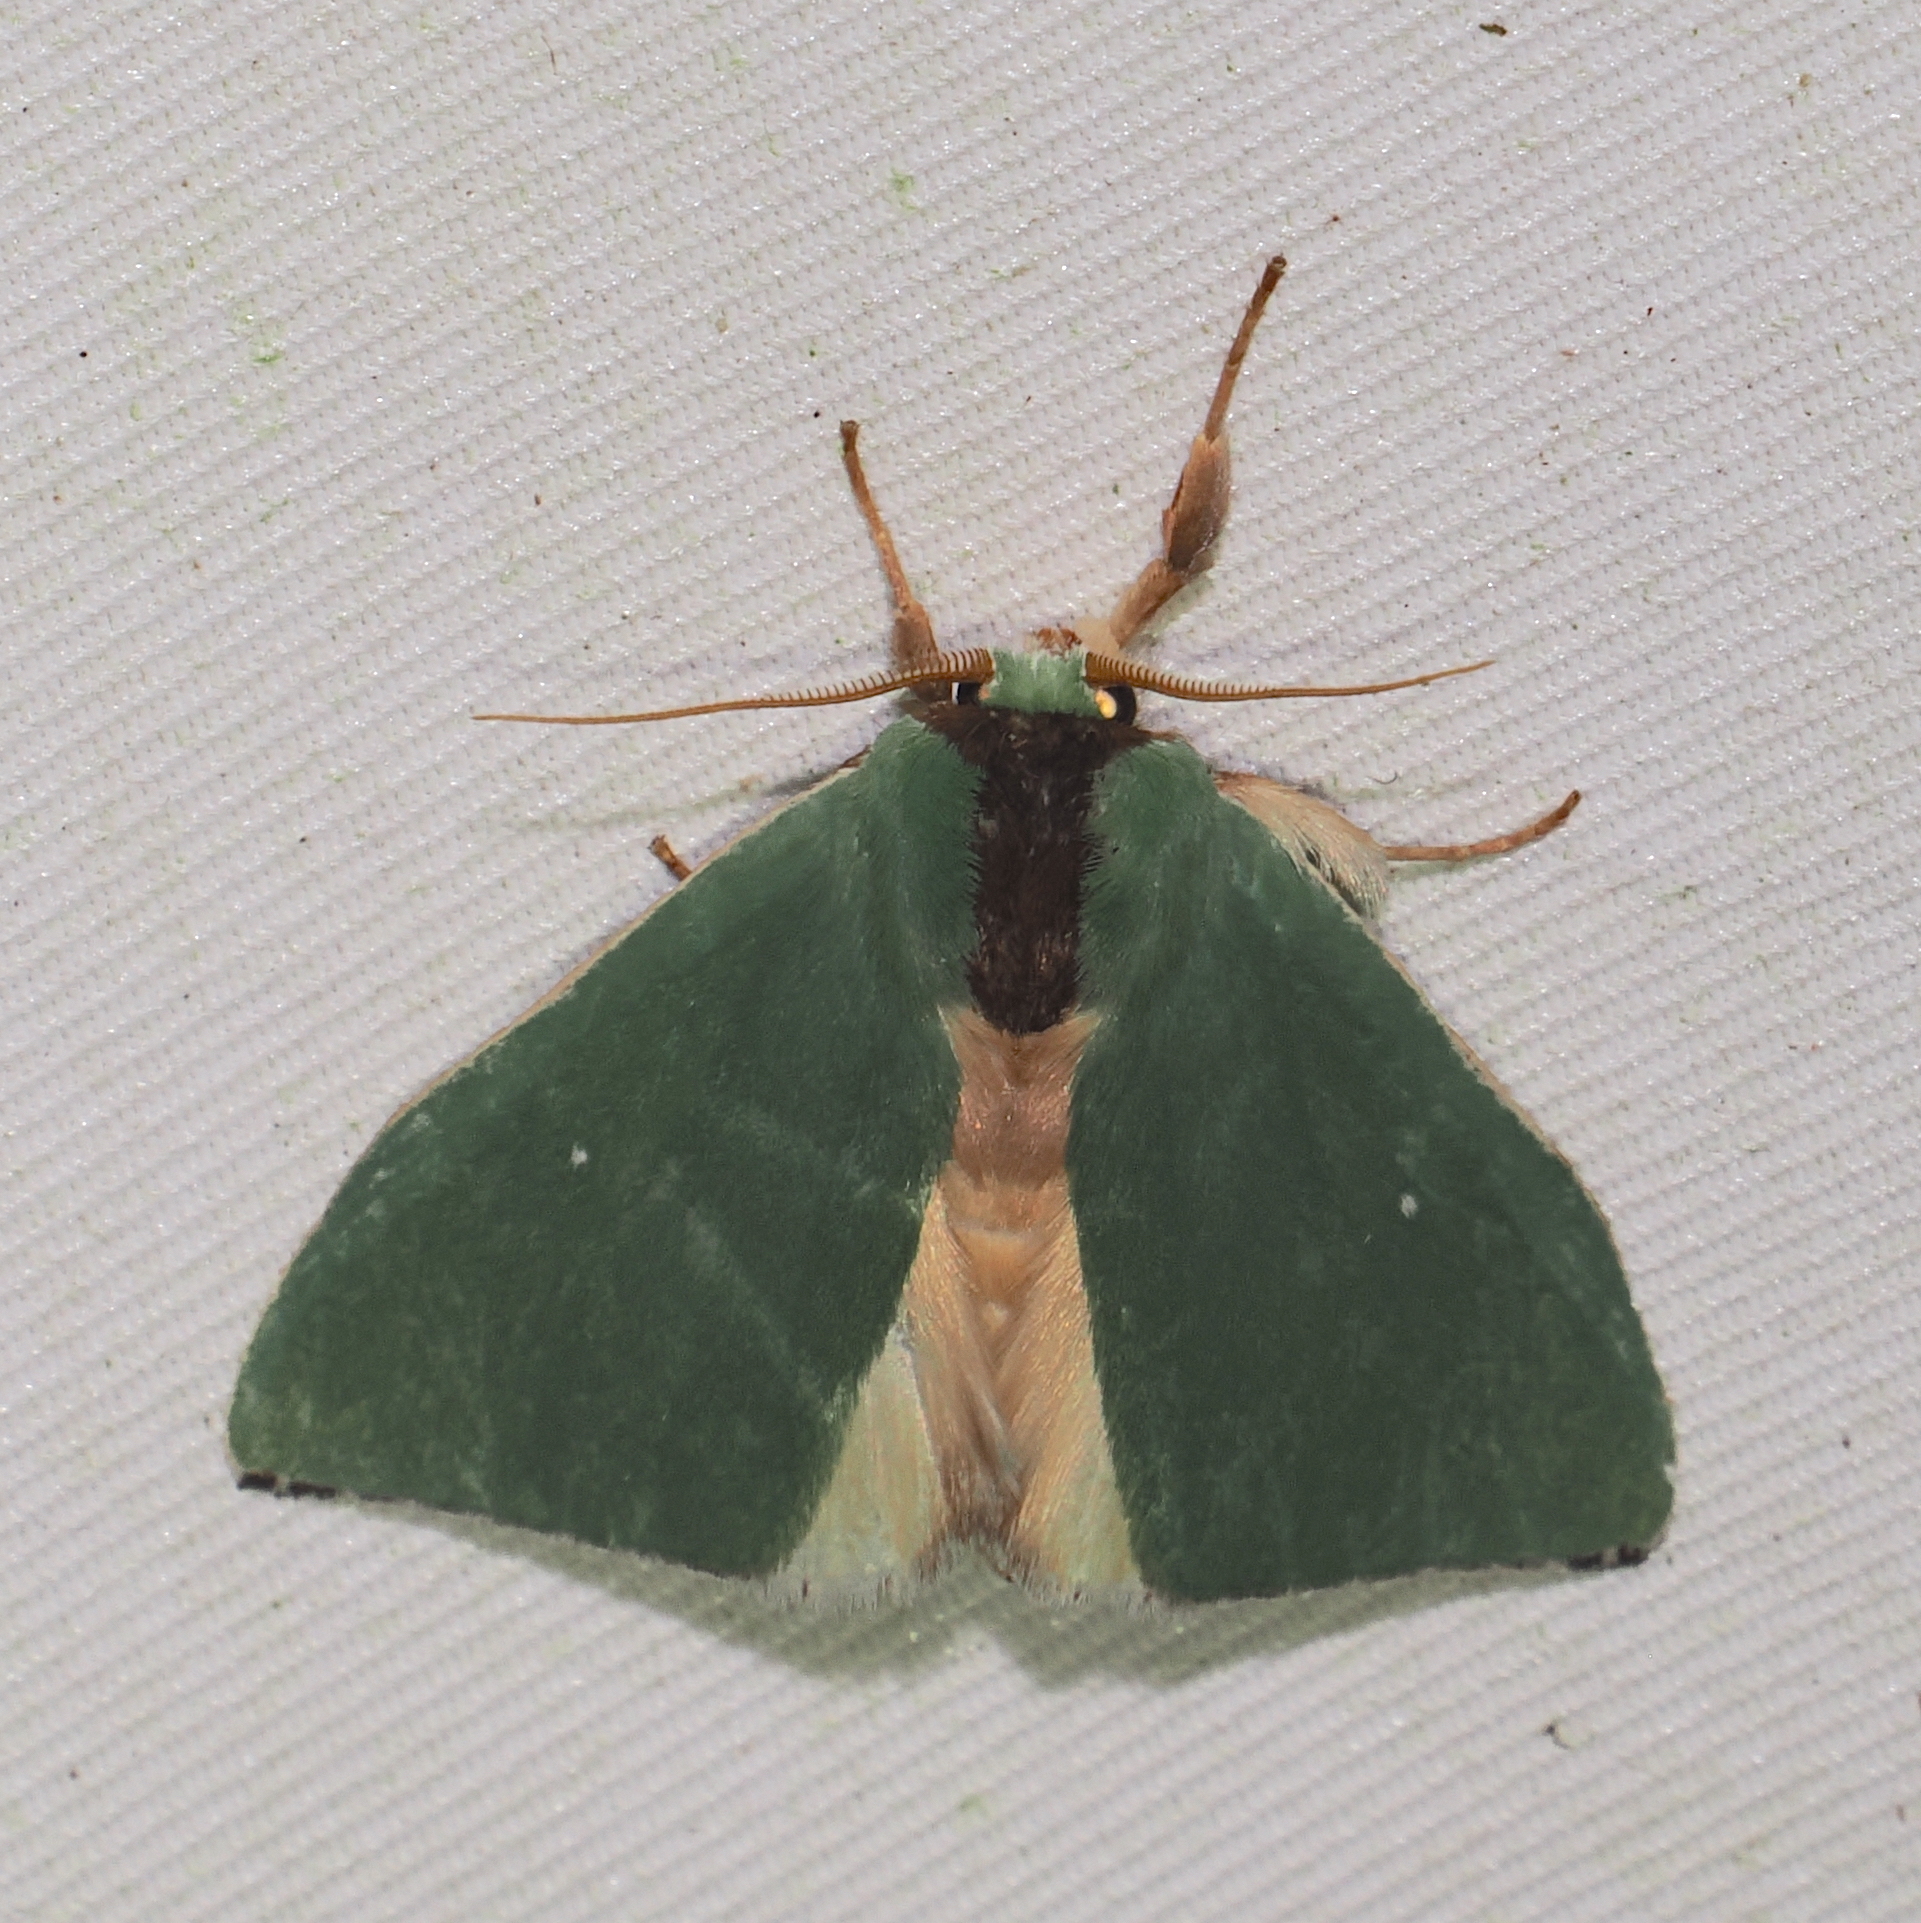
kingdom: Animalia
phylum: Arthropoda
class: Insecta
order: Lepidoptera
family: Notodontidae
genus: Rosema
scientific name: Rosema vitula
